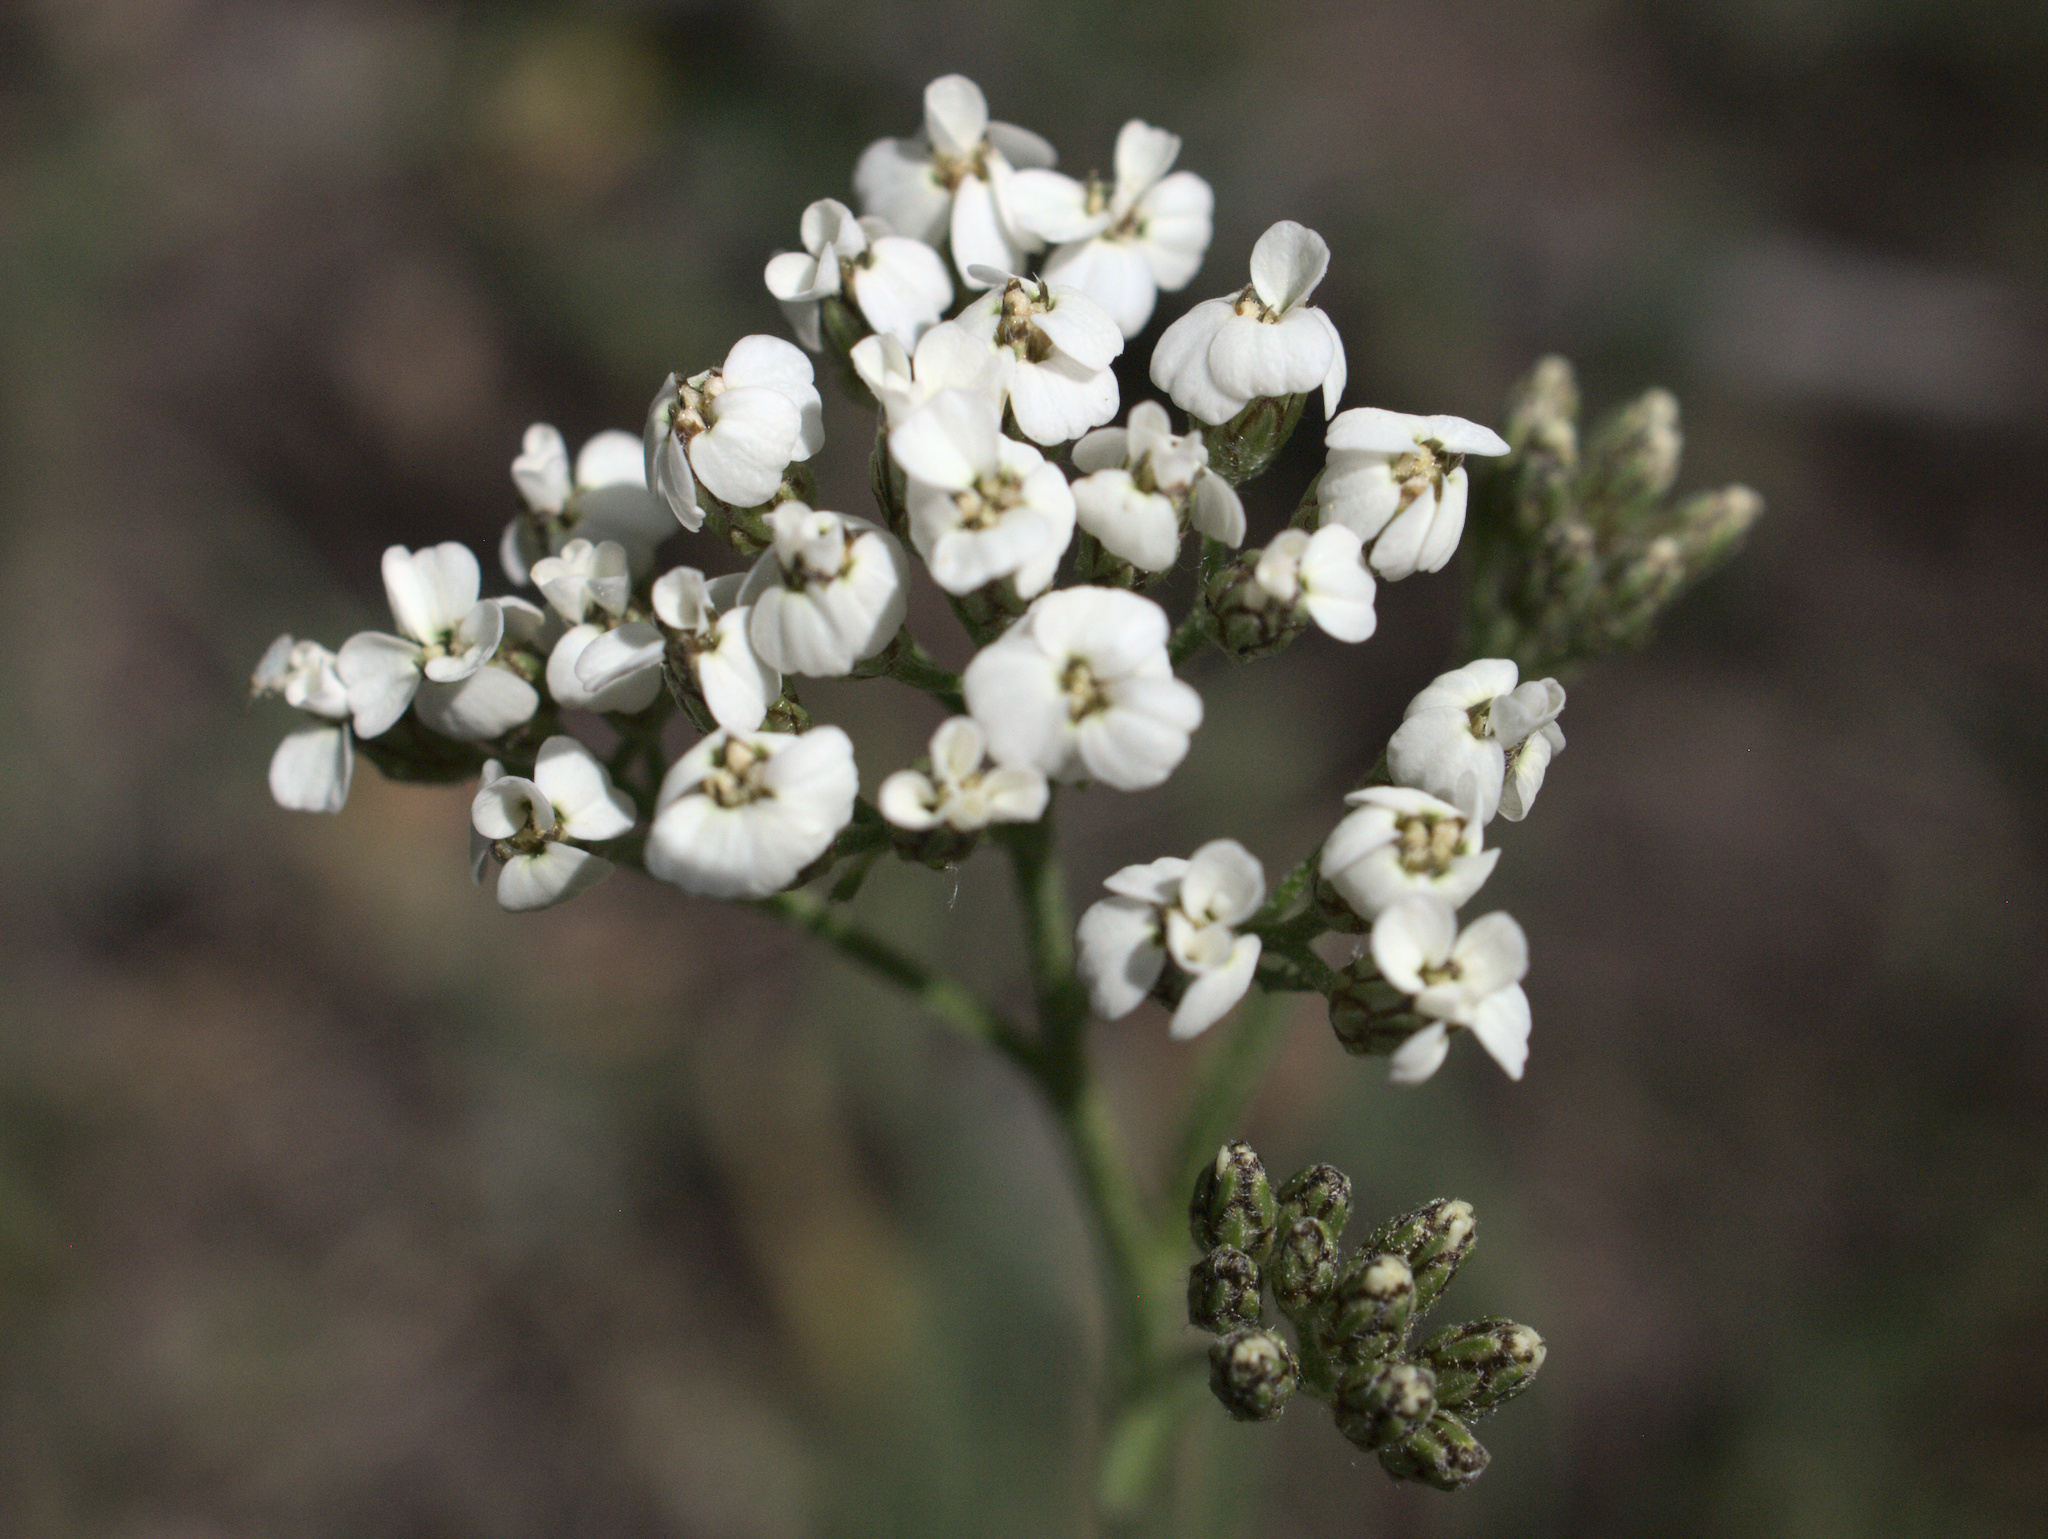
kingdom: Plantae
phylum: Tracheophyta
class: Magnoliopsida
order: Asterales
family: Asteraceae
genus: Achillea
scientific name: Achillea millefolium
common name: Yarrow
